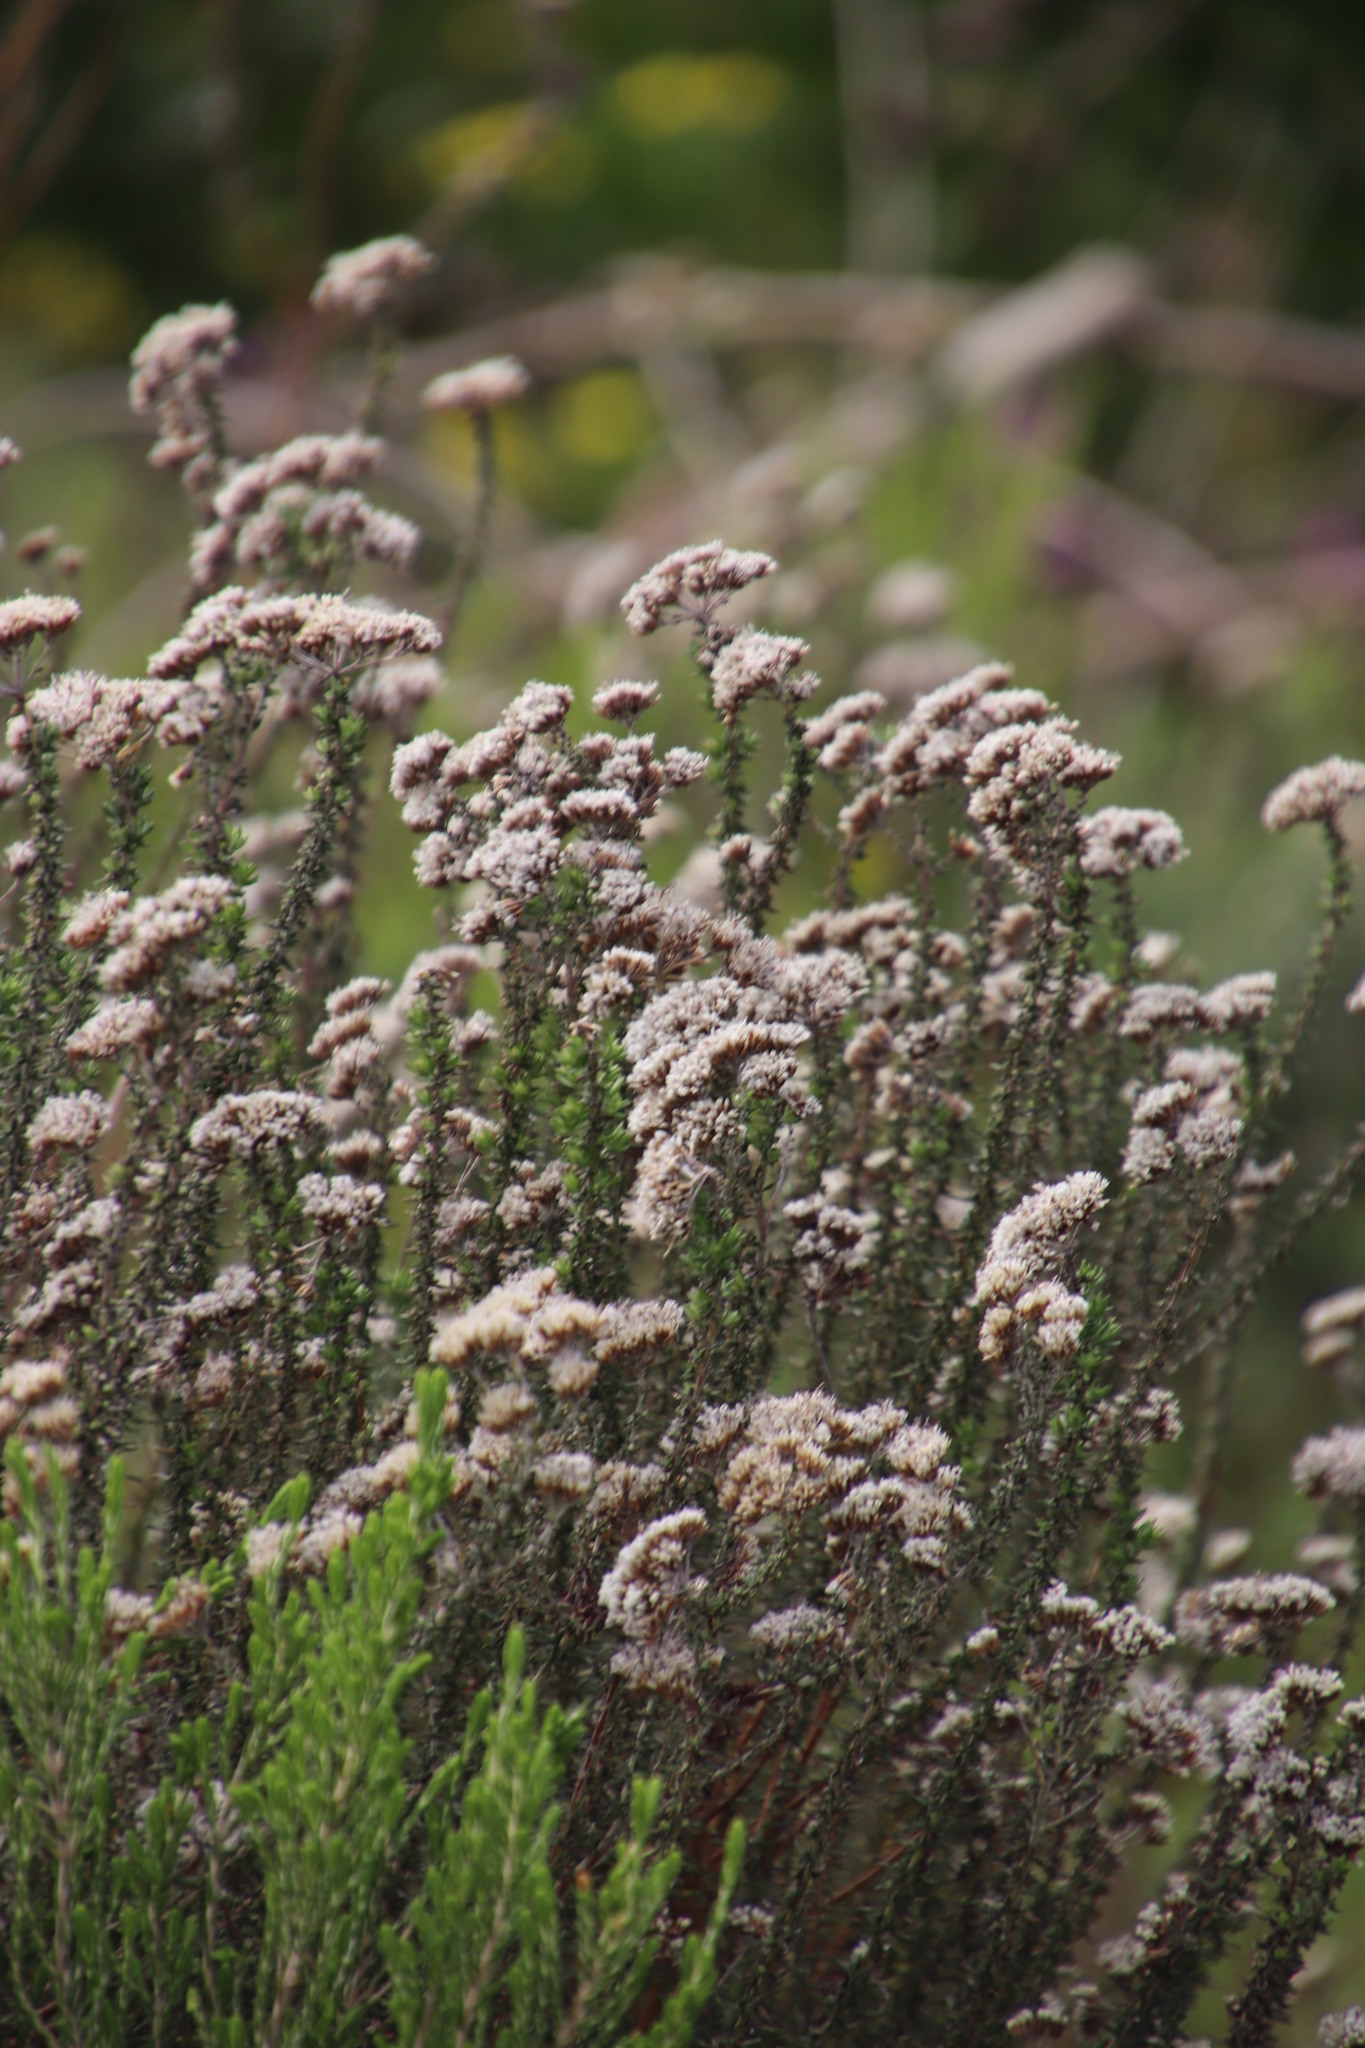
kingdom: Plantae
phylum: Tracheophyta
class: Magnoliopsida
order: Asterales
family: Asteraceae
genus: Metalasia
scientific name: Metalasia densa
